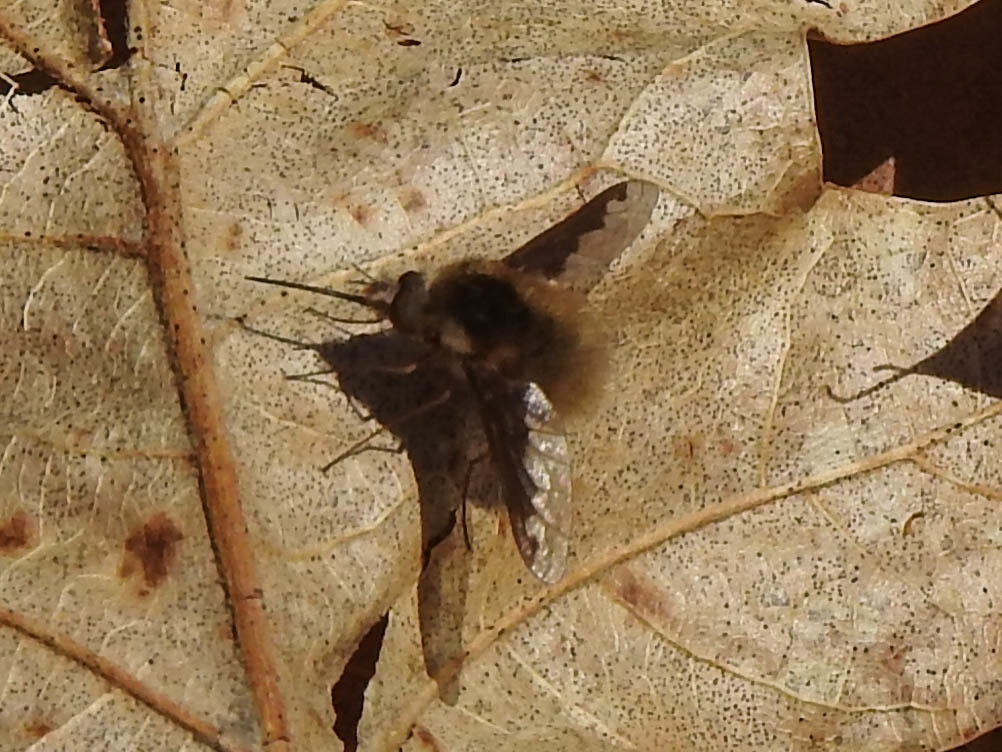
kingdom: Animalia
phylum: Arthropoda
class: Insecta
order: Diptera
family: Bombyliidae
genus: Bombylius
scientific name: Bombylius major
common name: Bee fly
